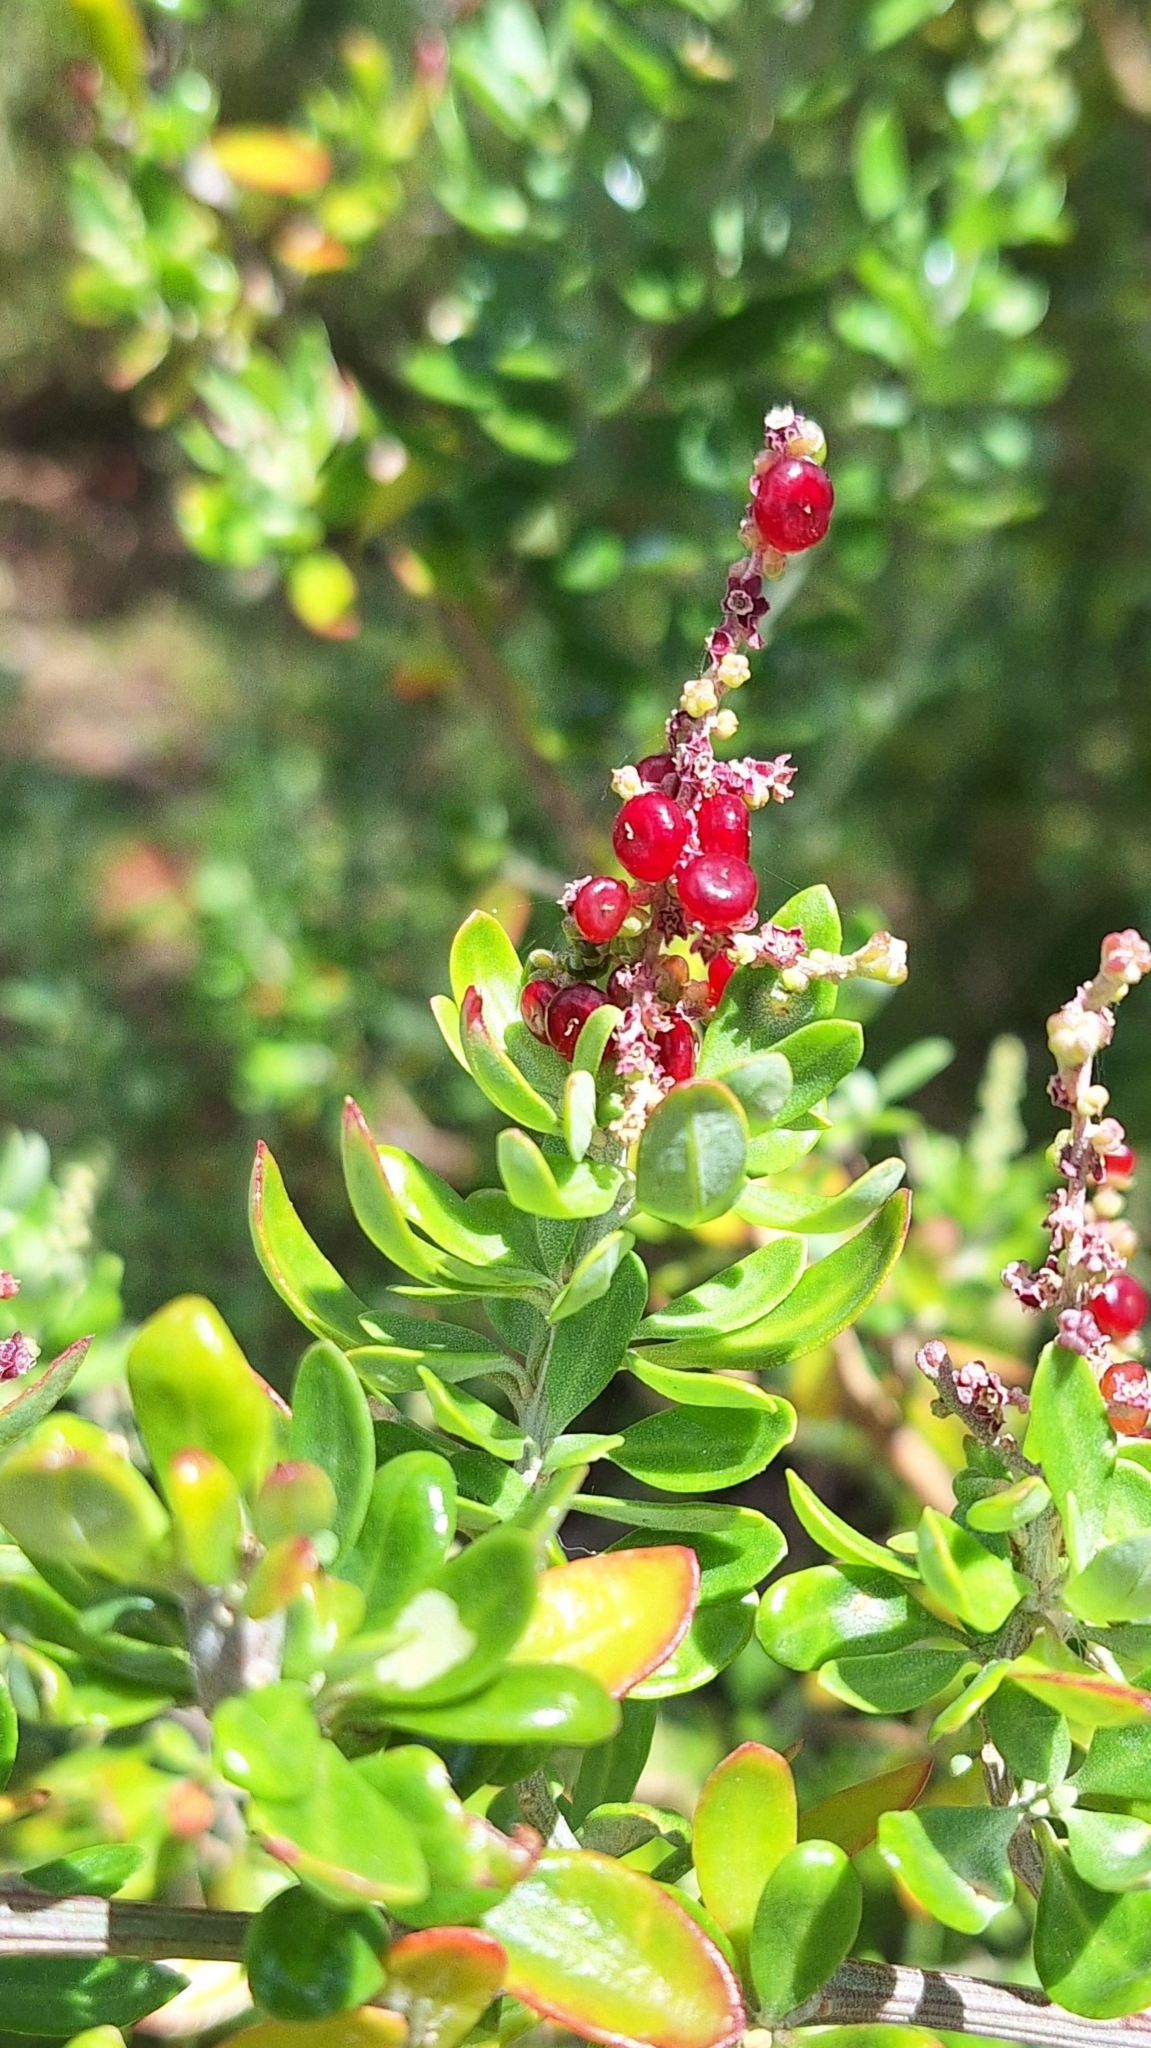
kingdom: Plantae
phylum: Tracheophyta
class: Magnoliopsida
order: Caryophyllales
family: Amaranthaceae
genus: Chenopodium
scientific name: Chenopodium candolleanum
